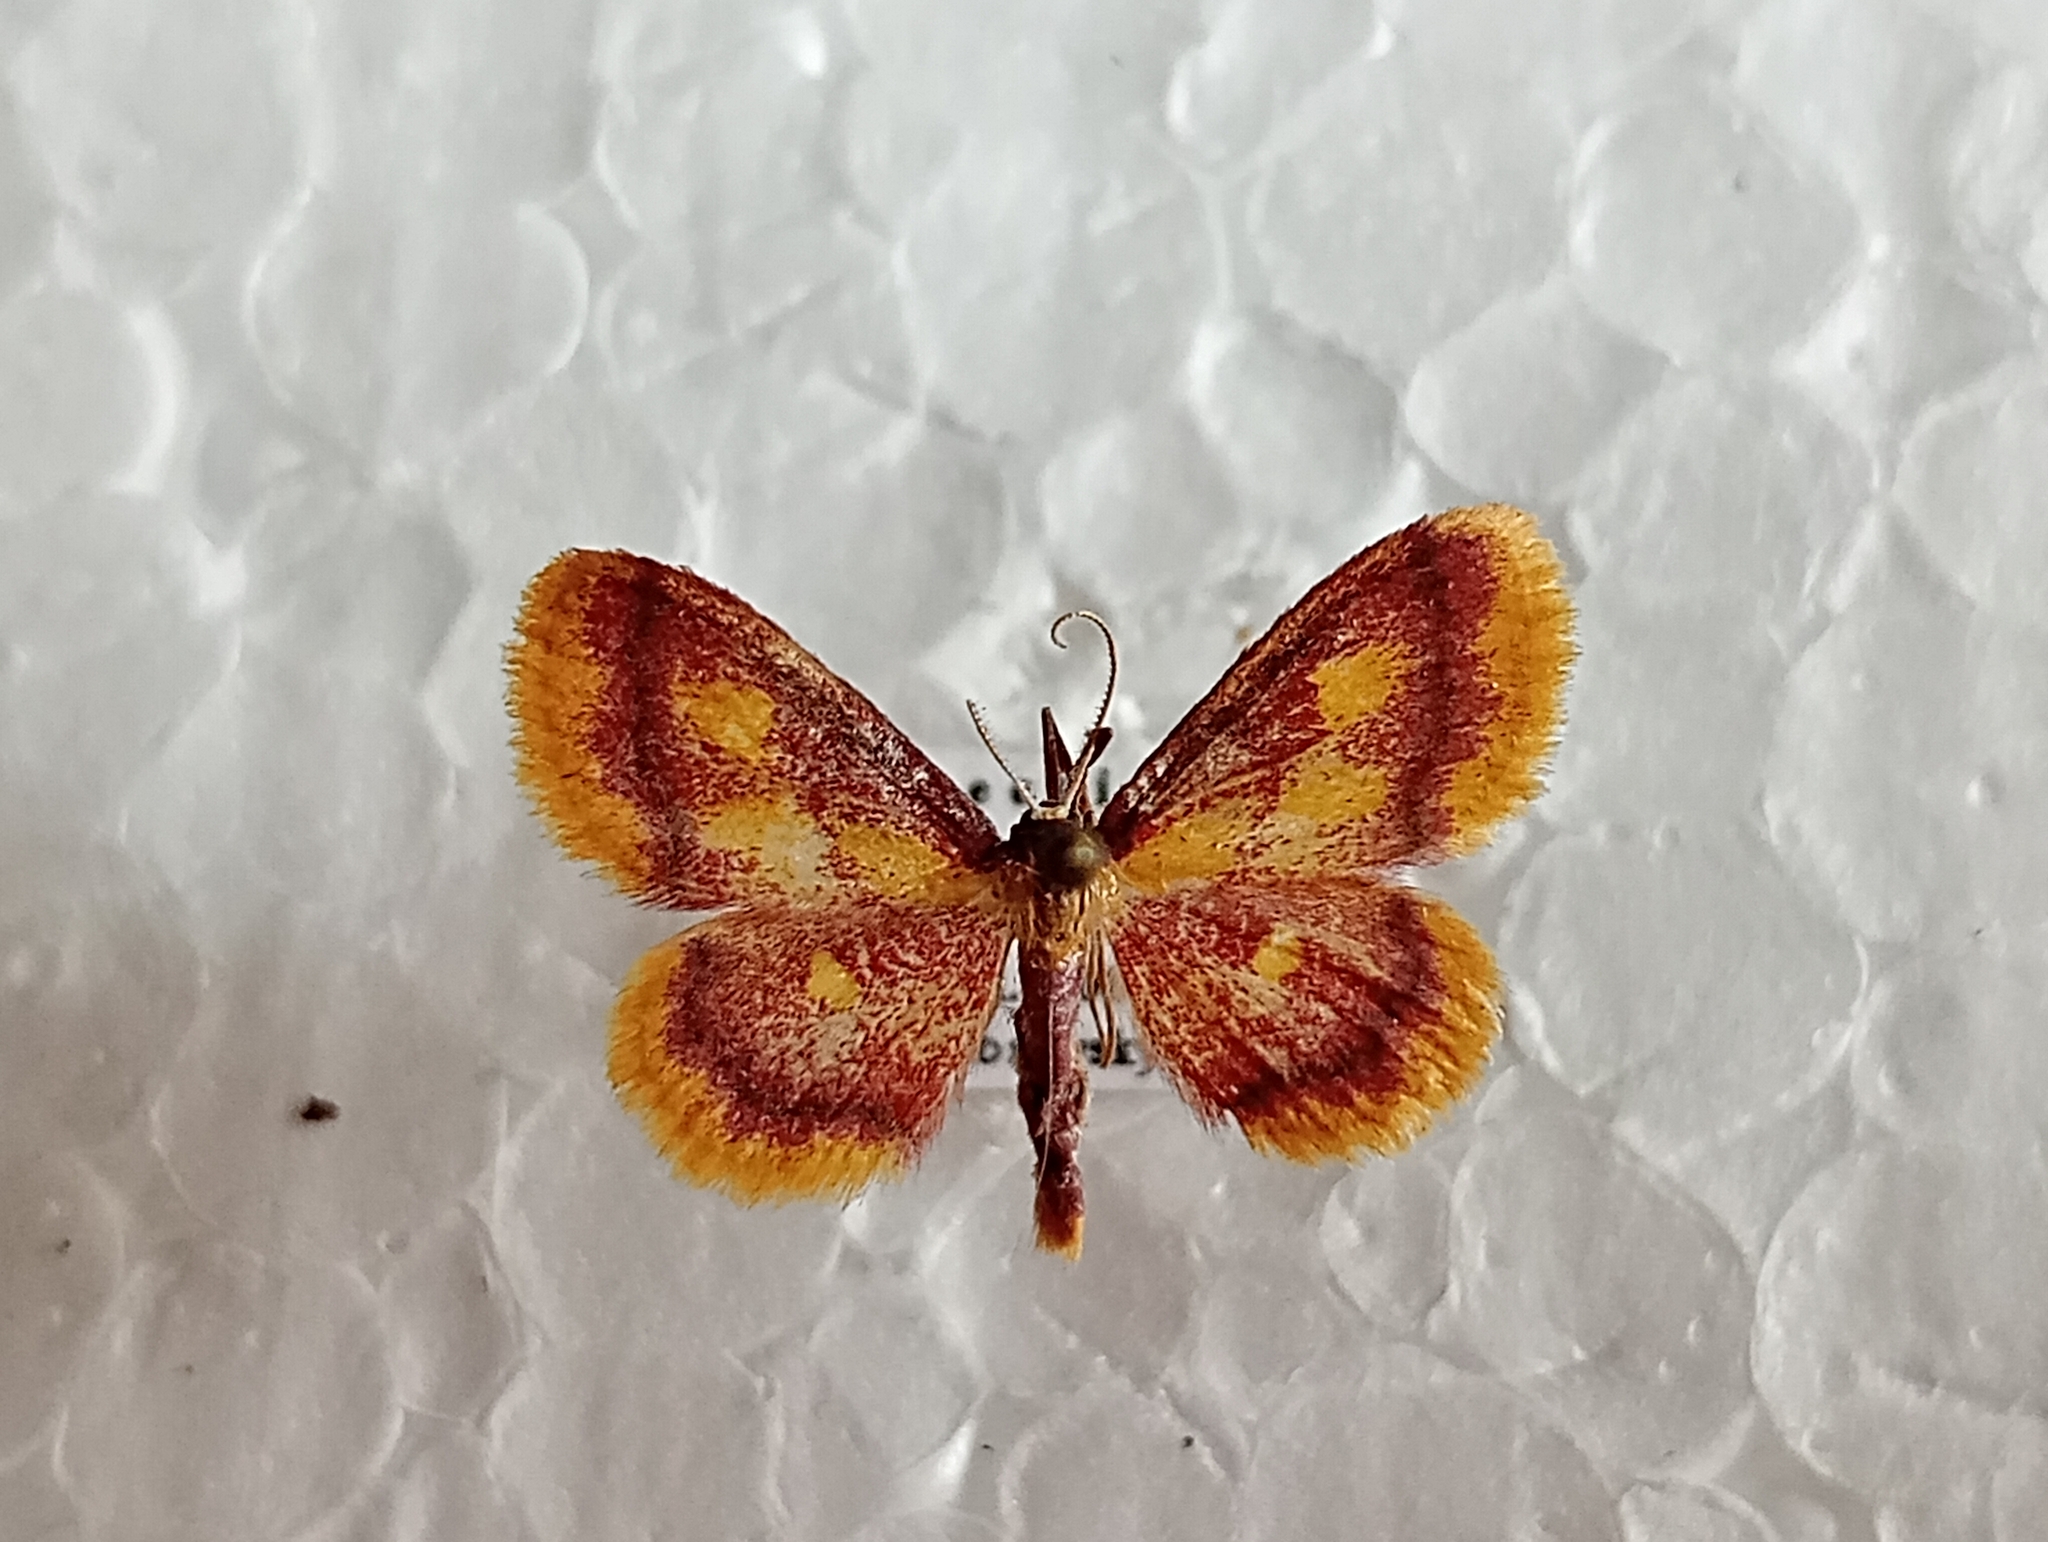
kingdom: Animalia
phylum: Arthropoda
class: Insecta
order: Lepidoptera
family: Geometridae
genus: Idaea
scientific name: Idaea muricata
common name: Purple-bordered gold
